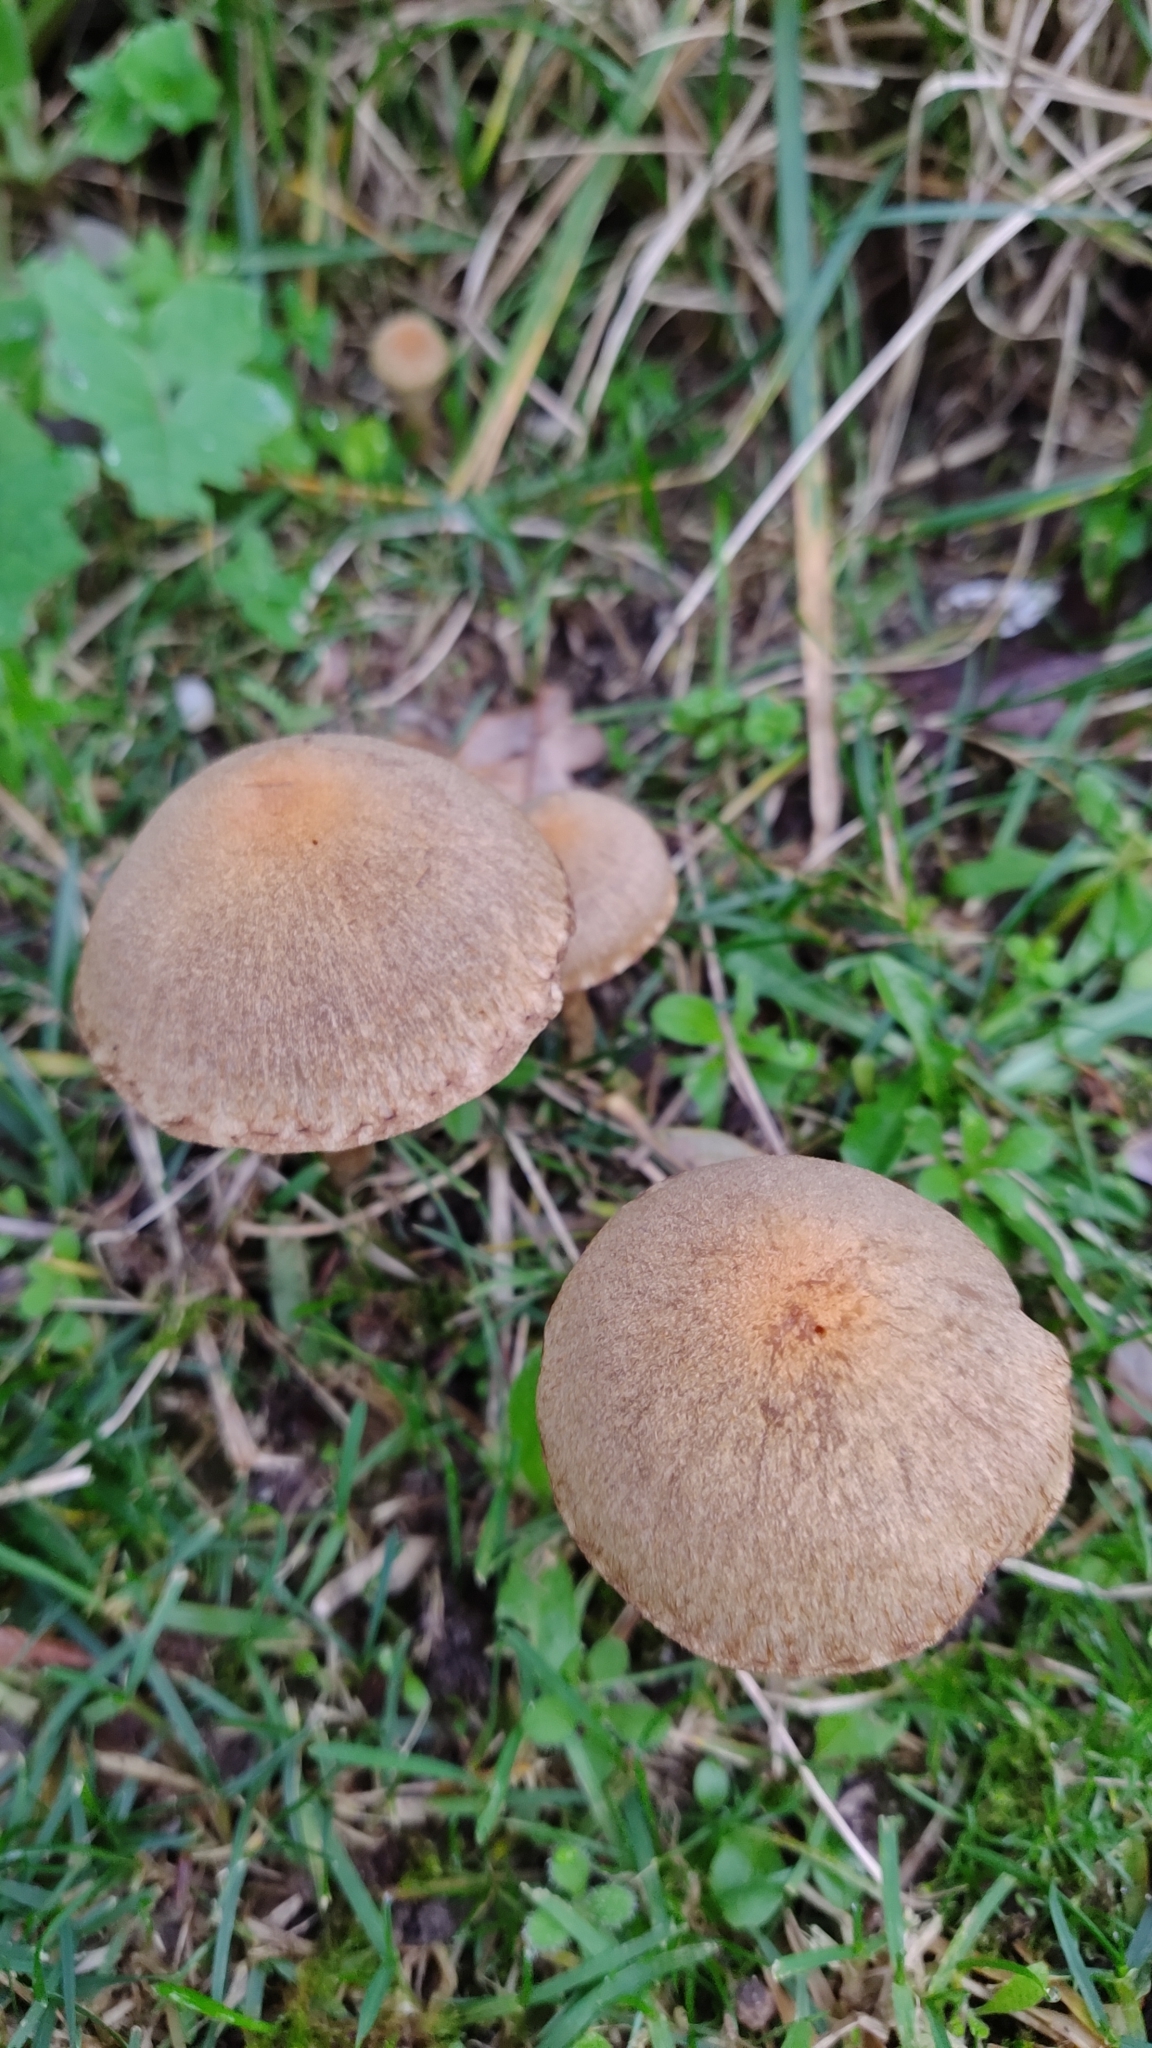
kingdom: Fungi
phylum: Basidiomycota
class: Agaricomycetes
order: Agaricales
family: Psathyrellaceae
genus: Lacrymaria
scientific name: Lacrymaria lacrymabunda
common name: Weeping widow
